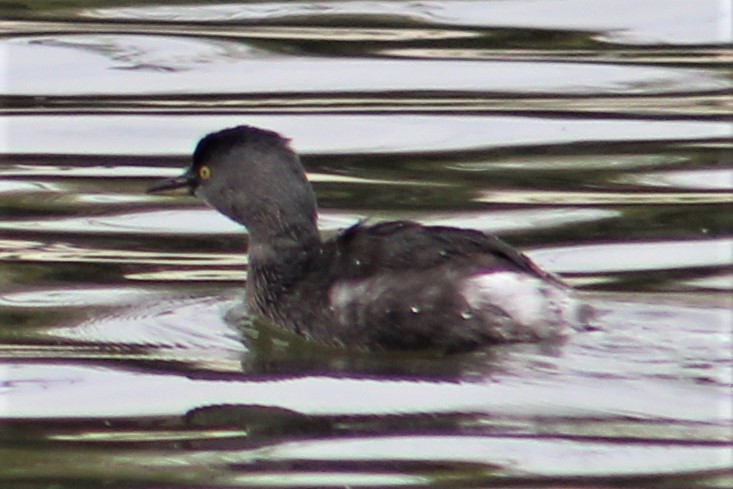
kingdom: Animalia
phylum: Chordata
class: Aves
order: Podicipediformes
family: Podicipedidae
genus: Tachybaptus
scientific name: Tachybaptus dominicus
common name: Least grebe
